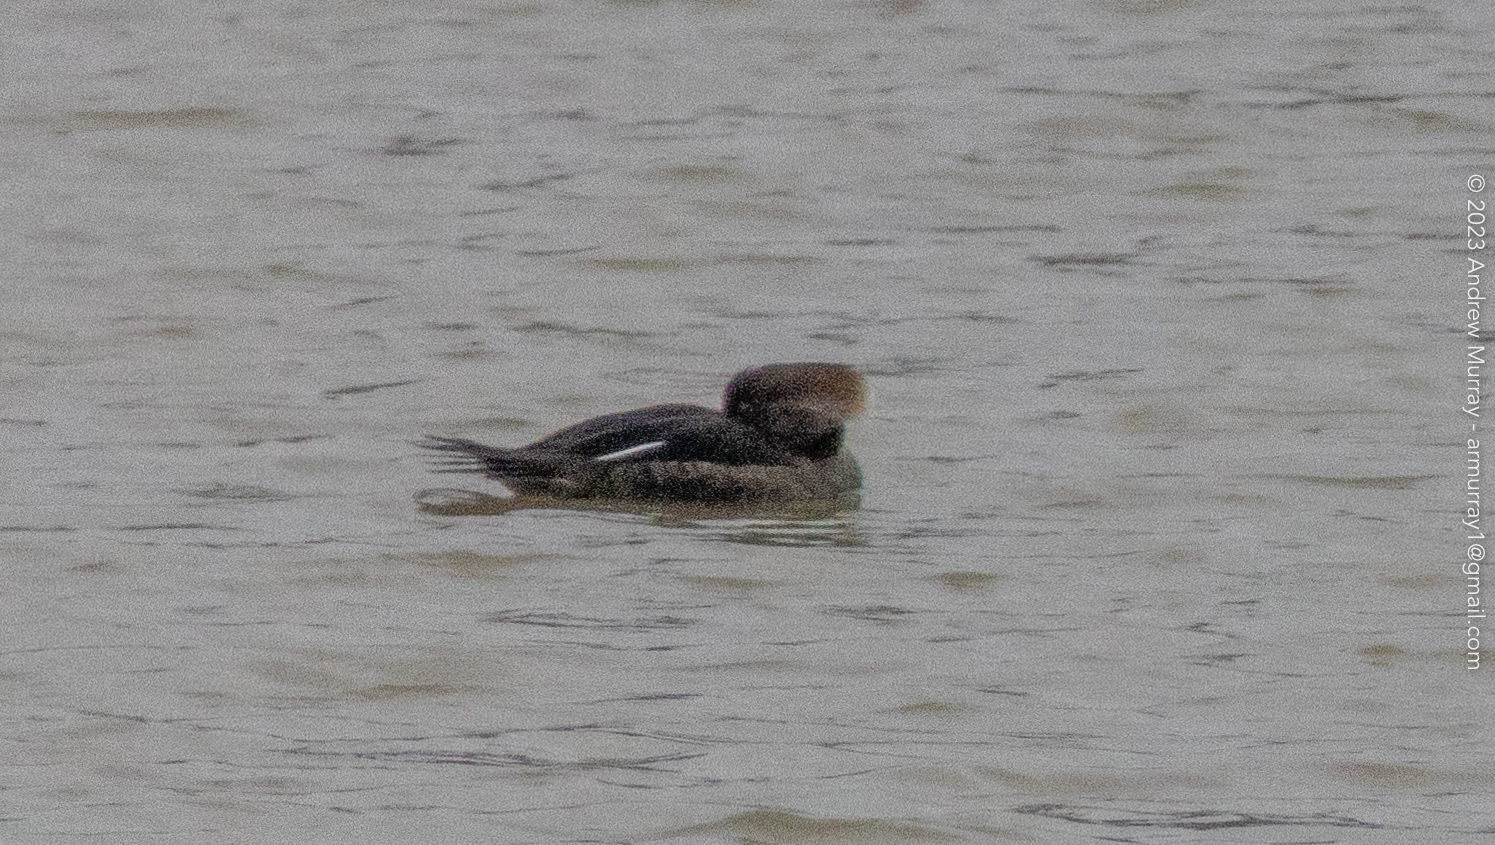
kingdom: Animalia
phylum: Chordata
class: Aves
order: Anseriformes
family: Anatidae
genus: Lophodytes
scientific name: Lophodytes cucullatus
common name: Hooded merganser
